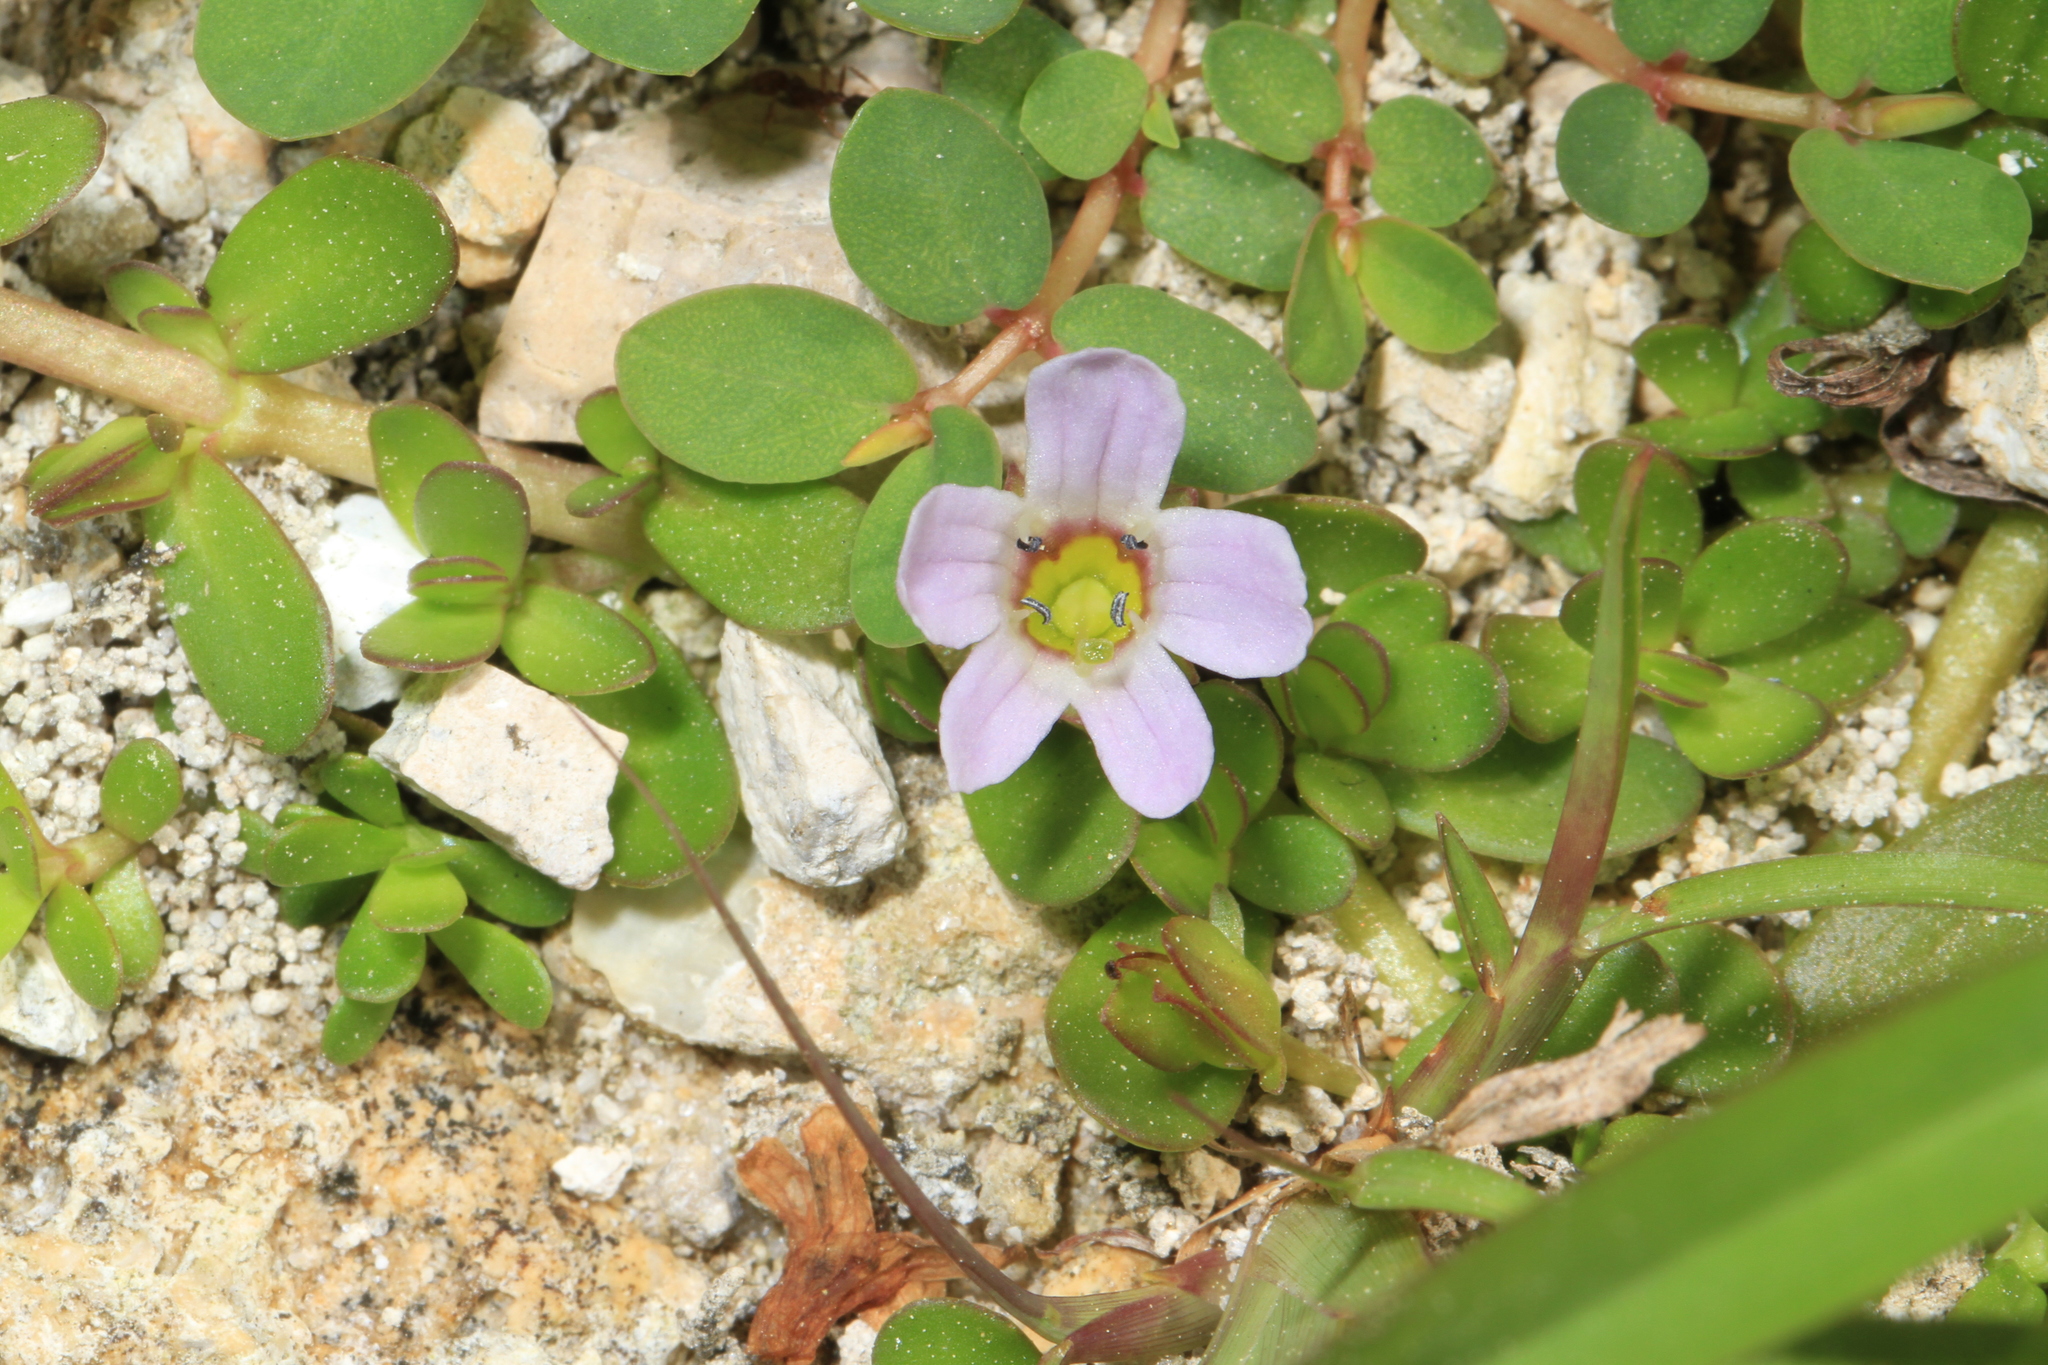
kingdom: Plantae
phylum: Tracheophyta
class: Magnoliopsida
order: Lamiales
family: Plantaginaceae
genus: Bacopa
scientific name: Bacopa monnieri
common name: Indian-pennywort
